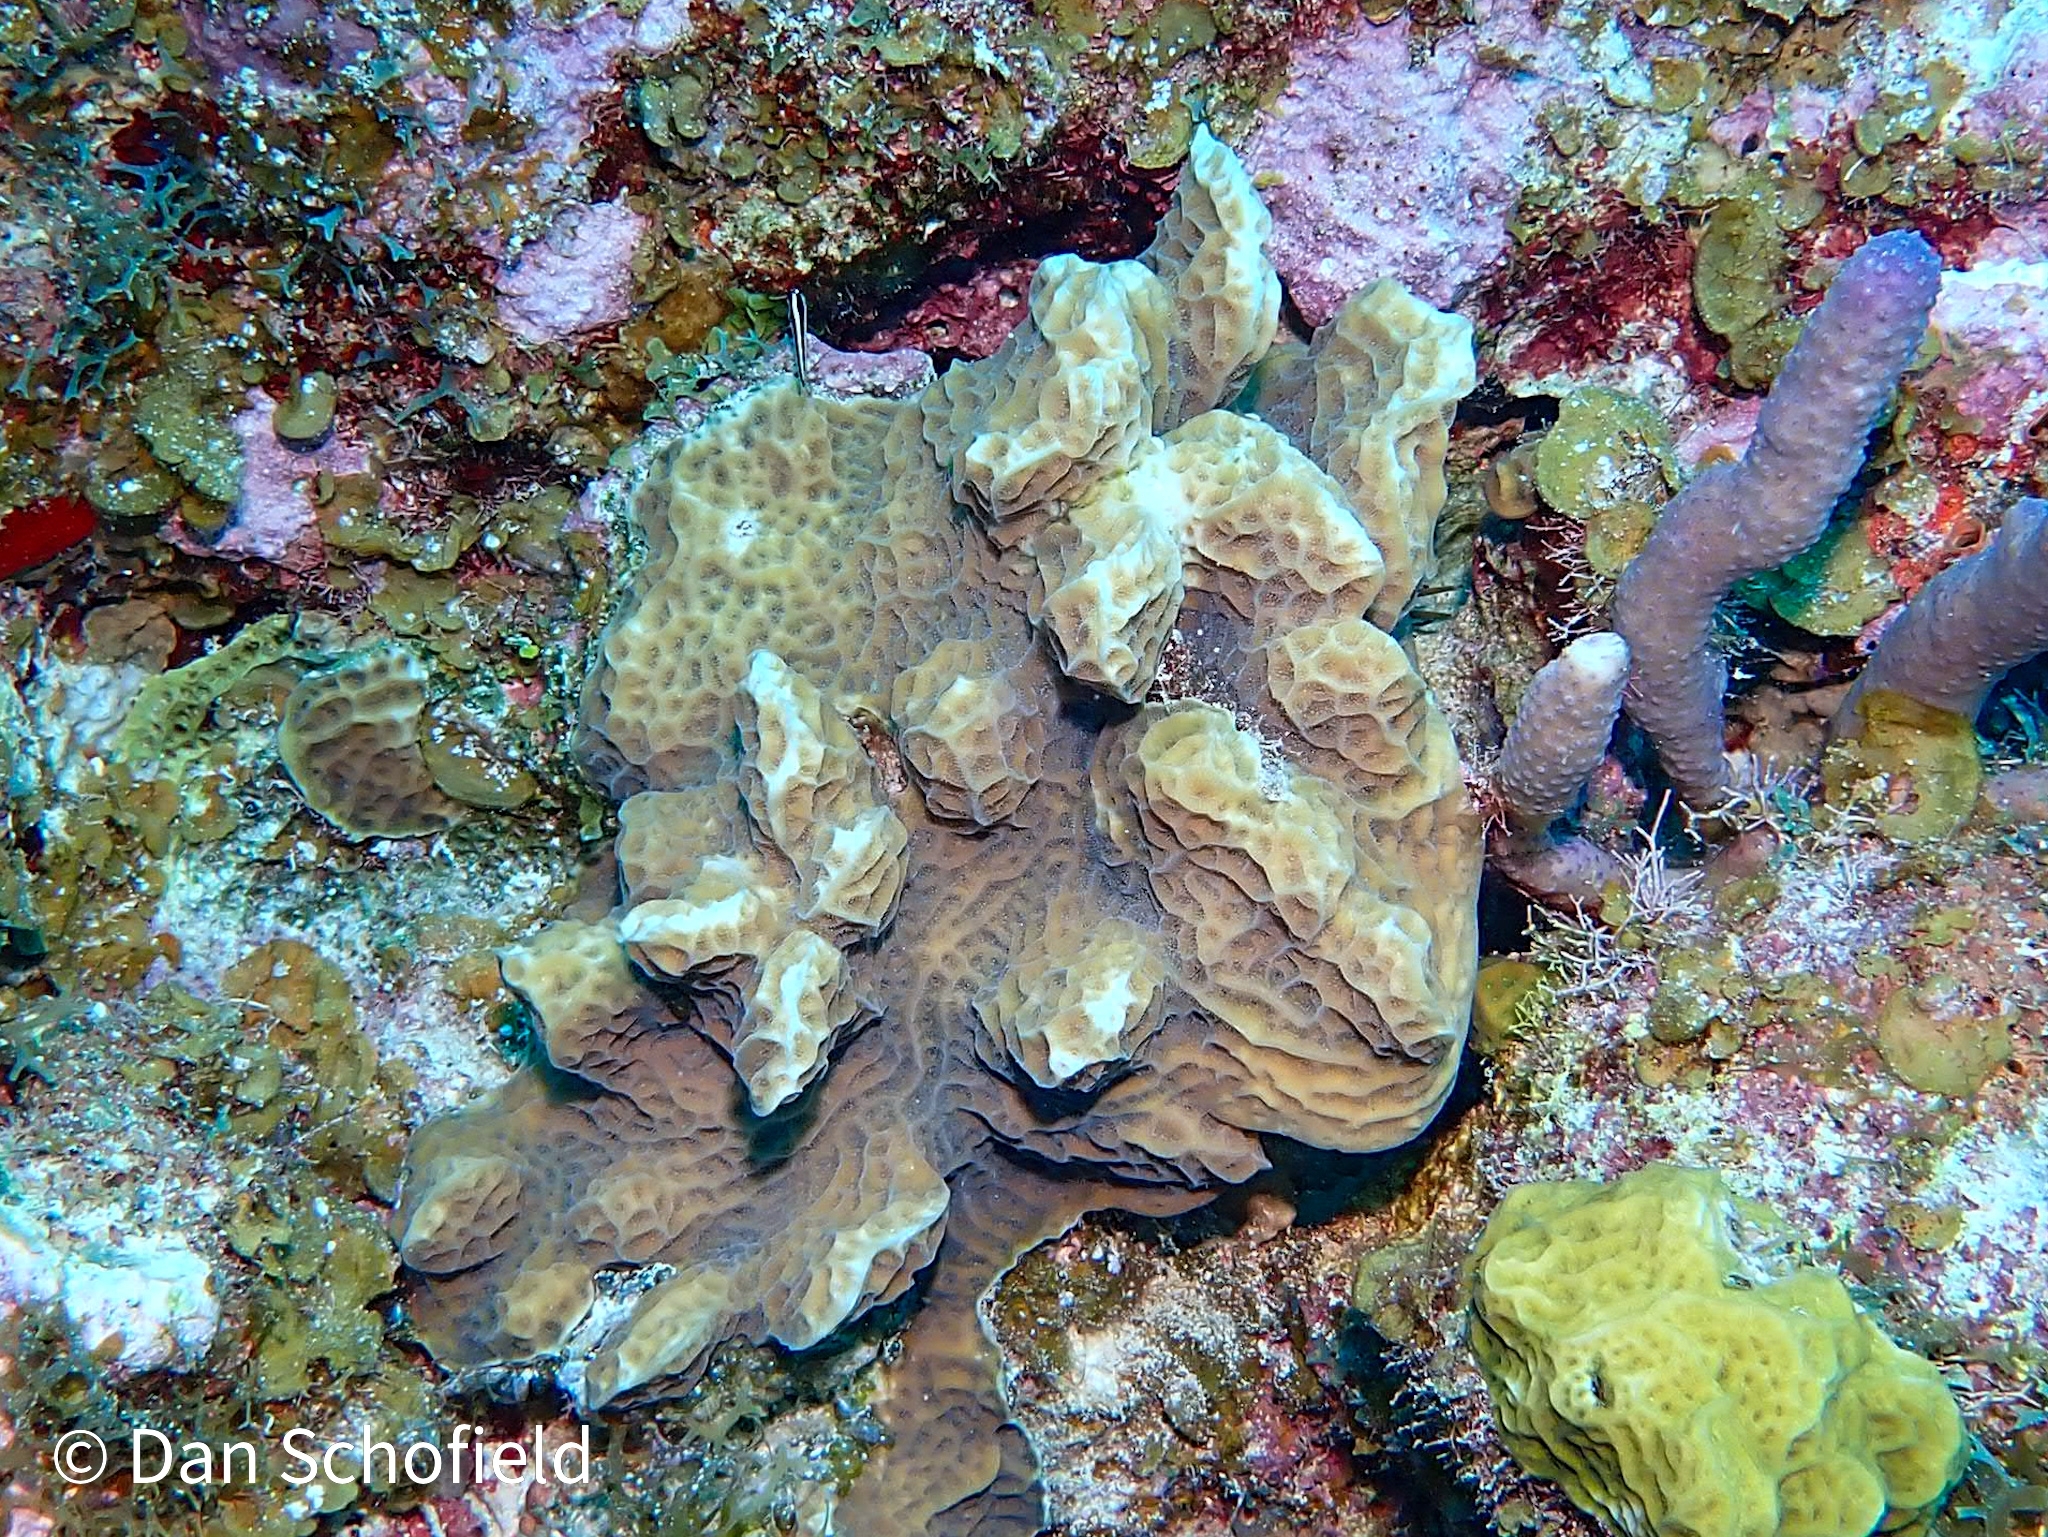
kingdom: Animalia
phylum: Cnidaria
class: Anthozoa
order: Scleractinia
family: Agariciidae
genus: Agaricia
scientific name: Agaricia agaricites
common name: Lettuce coral
